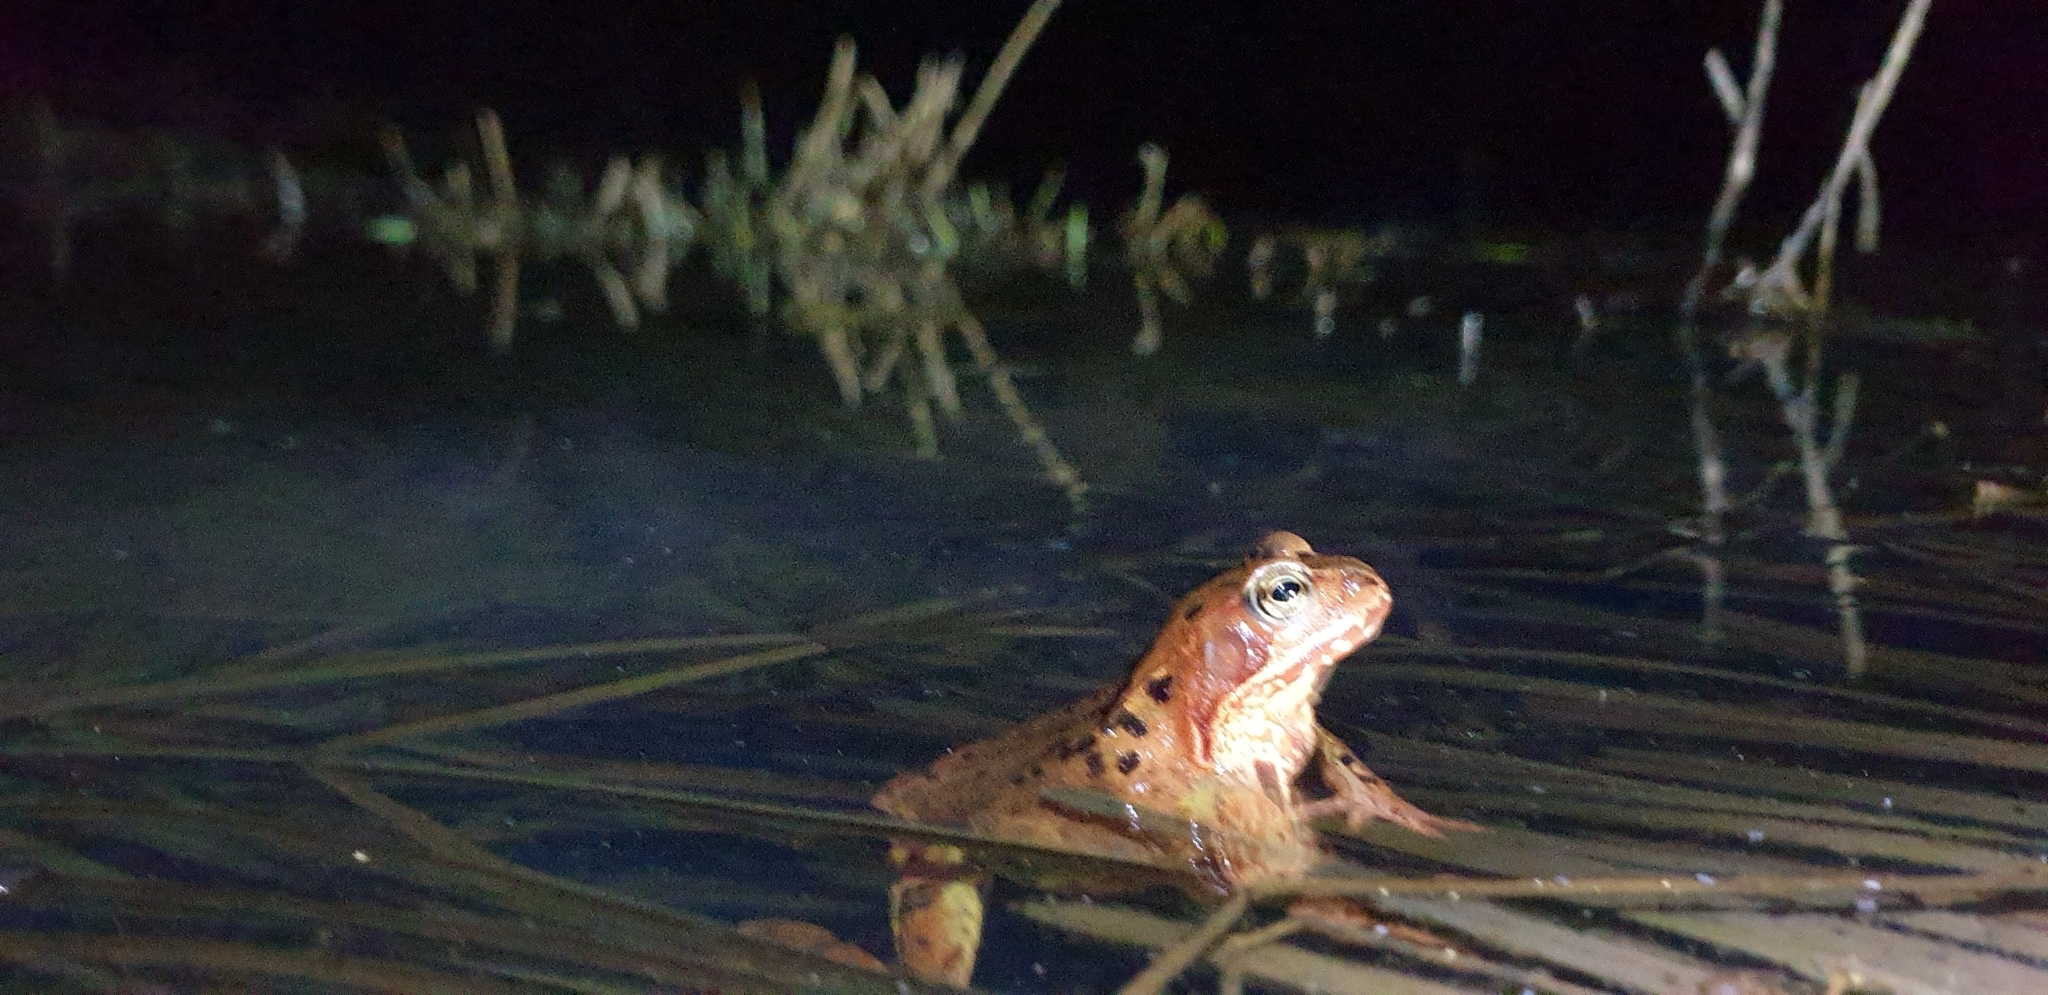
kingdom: Animalia
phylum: Chordata
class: Amphibia
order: Anura
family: Ranidae
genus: Rana
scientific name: Rana temporaria
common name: Common frog
